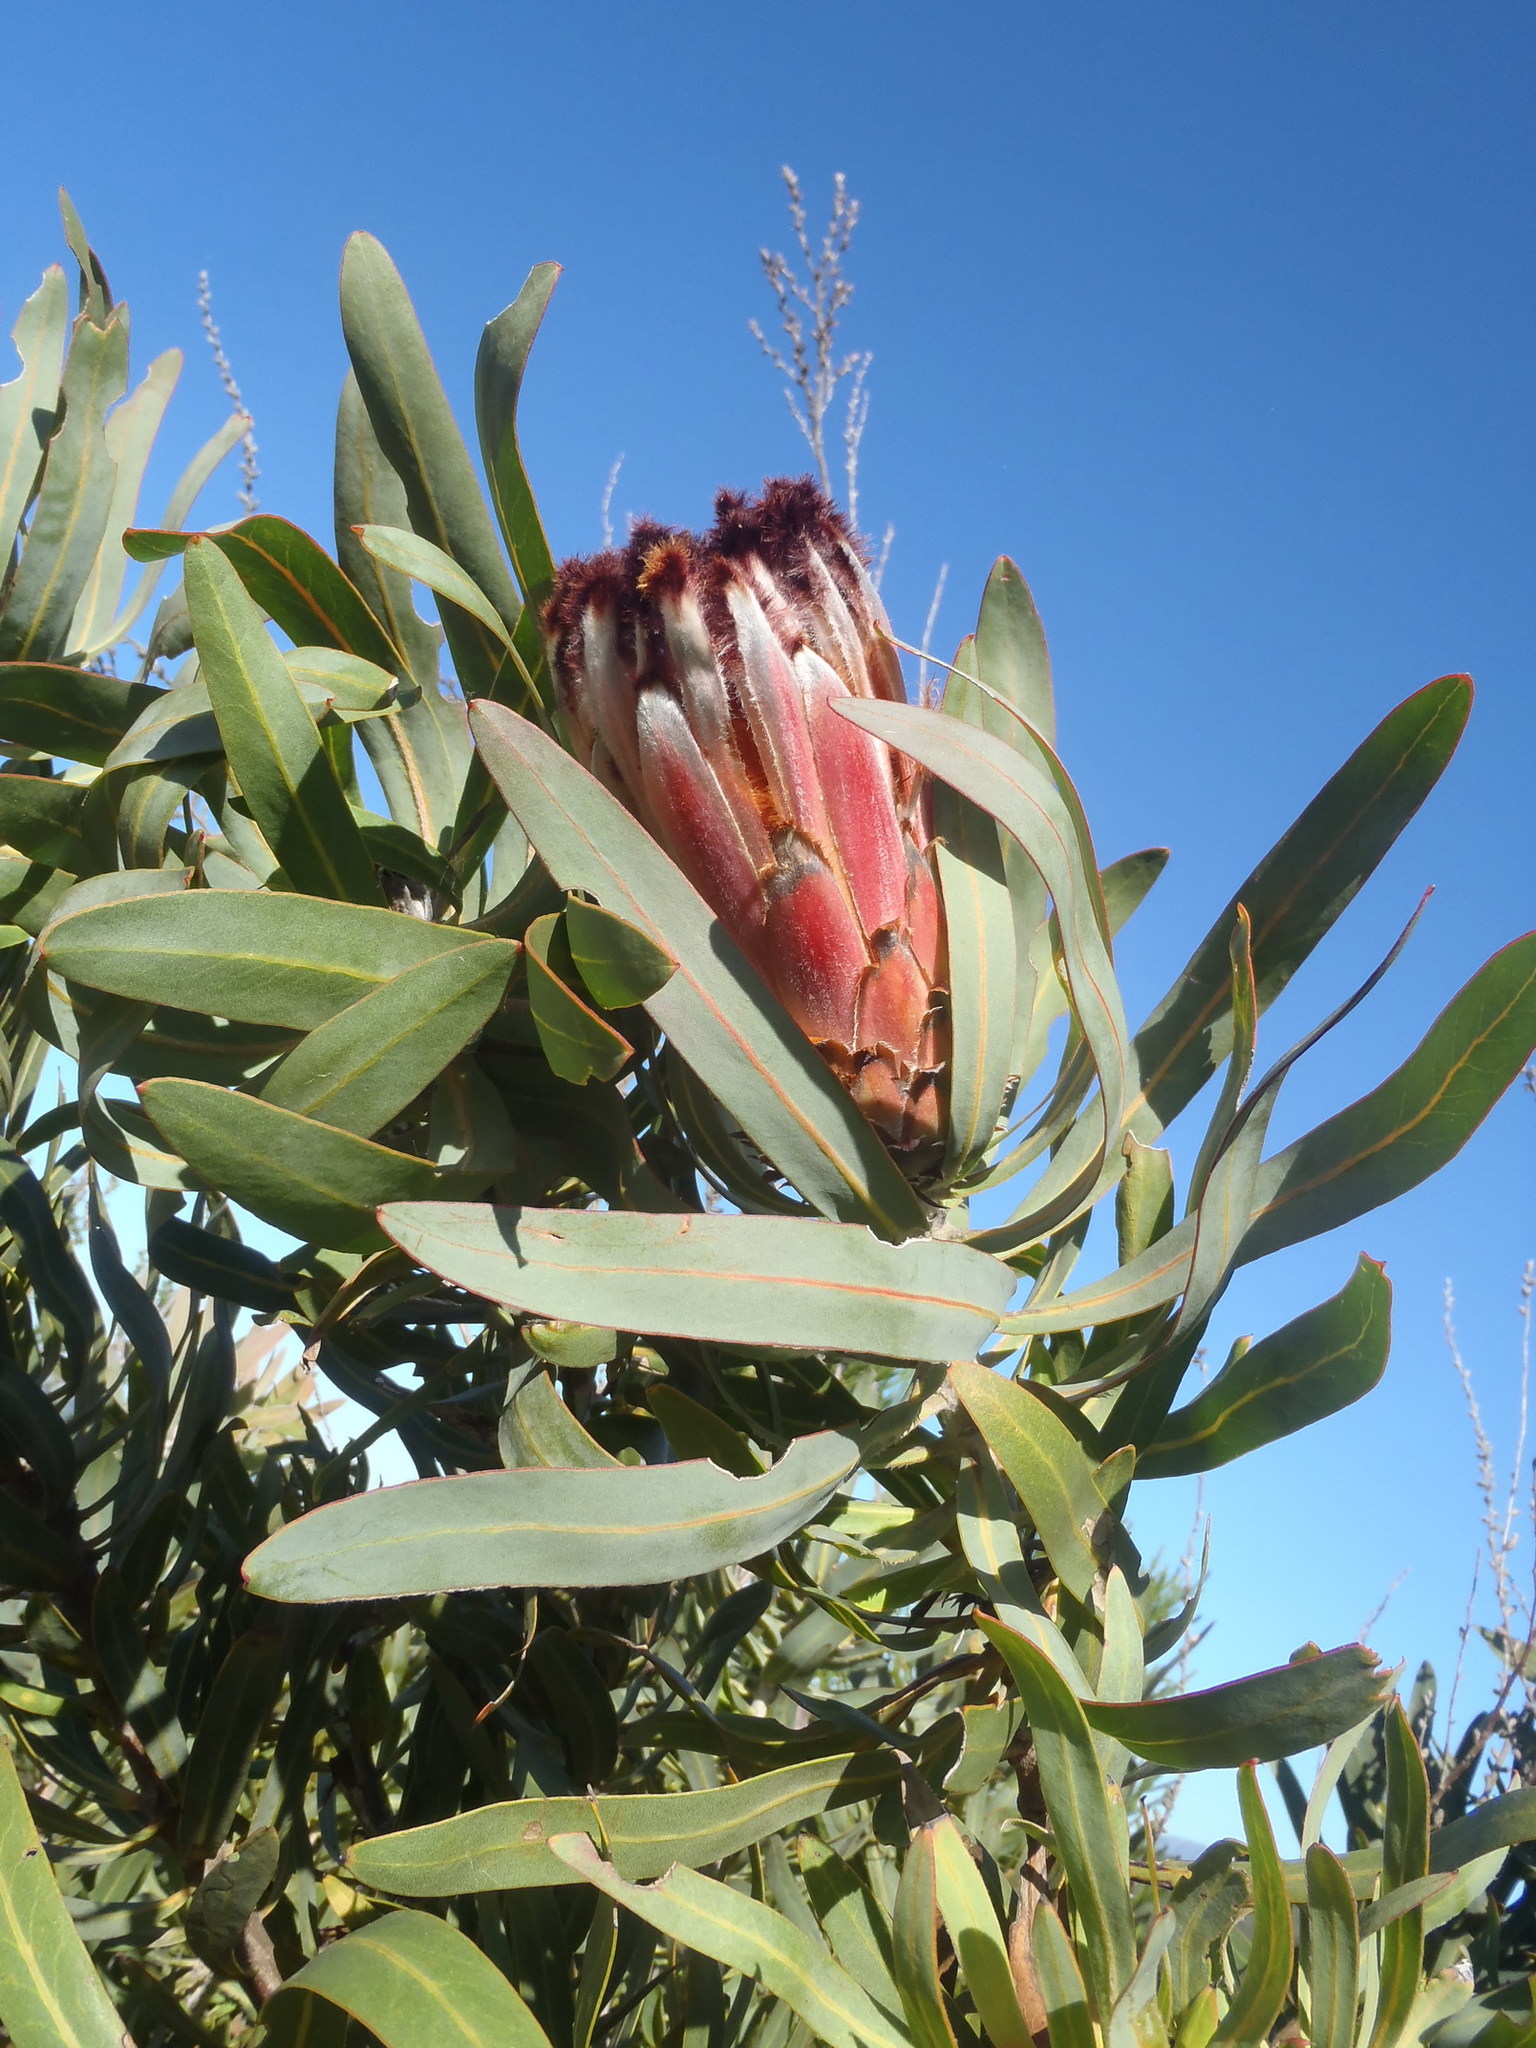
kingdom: Plantae
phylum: Tracheophyta
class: Magnoliopsida
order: Proteales
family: Proteaceae
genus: Protea
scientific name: Protea neriifolia
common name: Blue sugarbush
